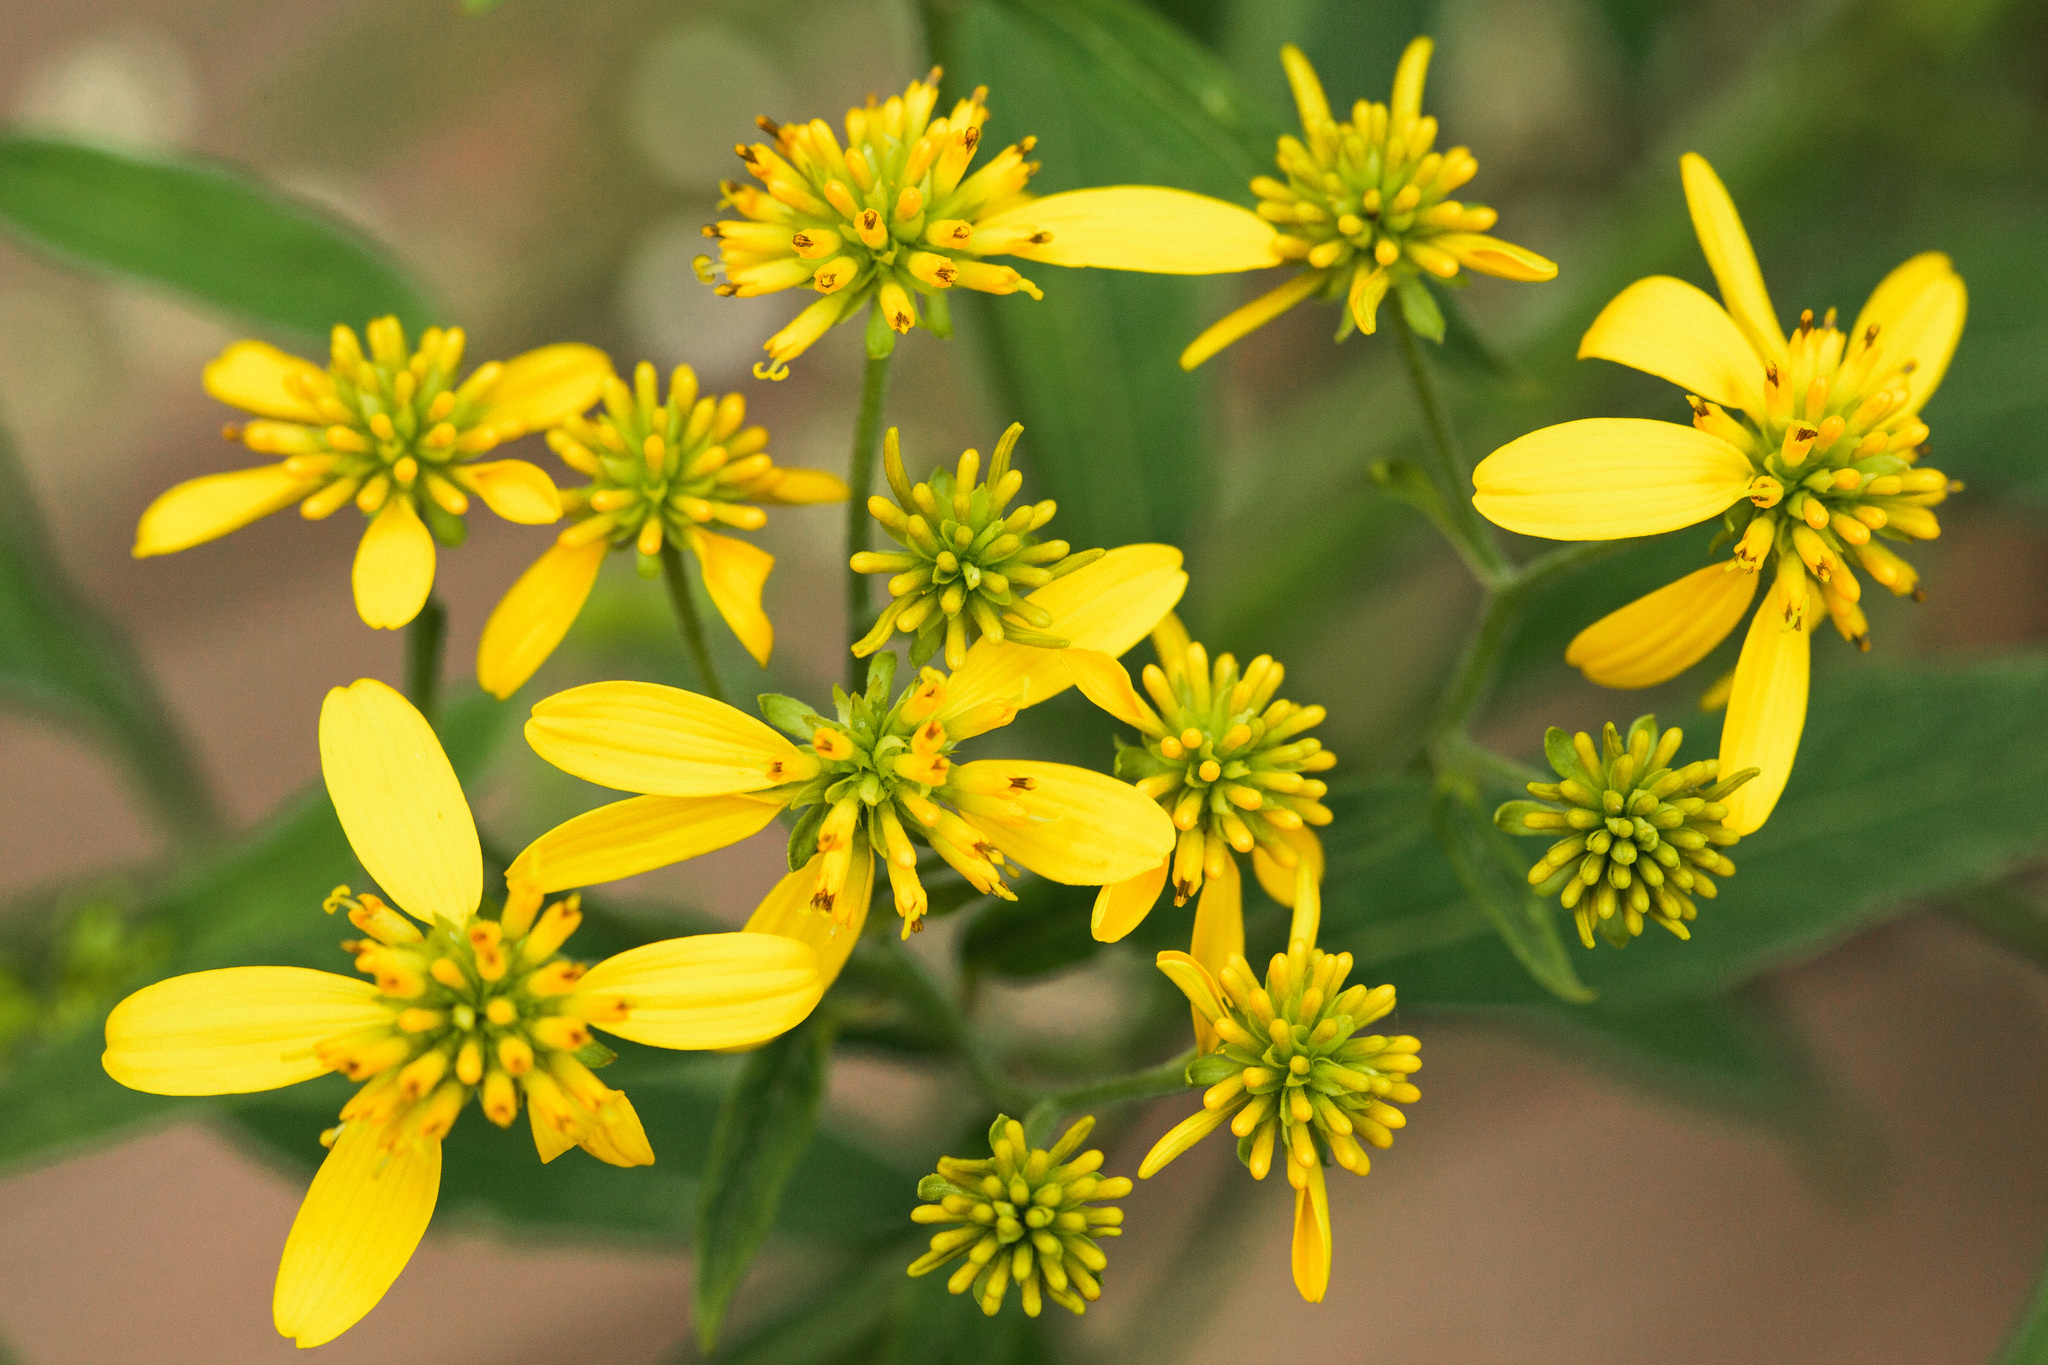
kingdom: Plantae
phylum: Tracheophyta
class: Magnoliopsida
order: Asterales
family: Asteraceae
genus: Verbesina
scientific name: Verbesina alternifolia
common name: Wingstem
